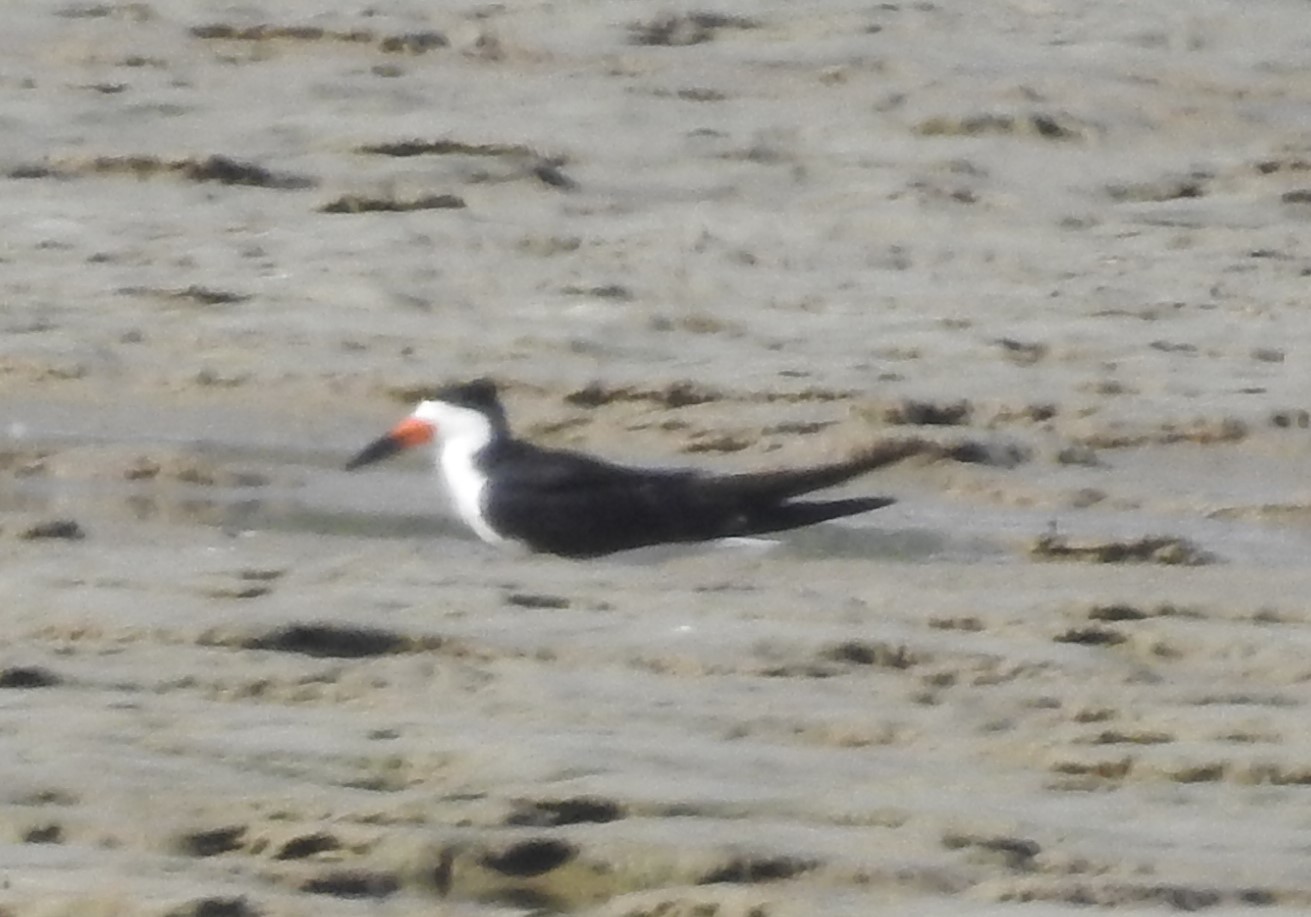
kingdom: Animalia
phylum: Chordata
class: Aves
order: Charadriiformes
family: Laridae
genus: Rynchops
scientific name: Rynchops niger
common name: Black skimmer
